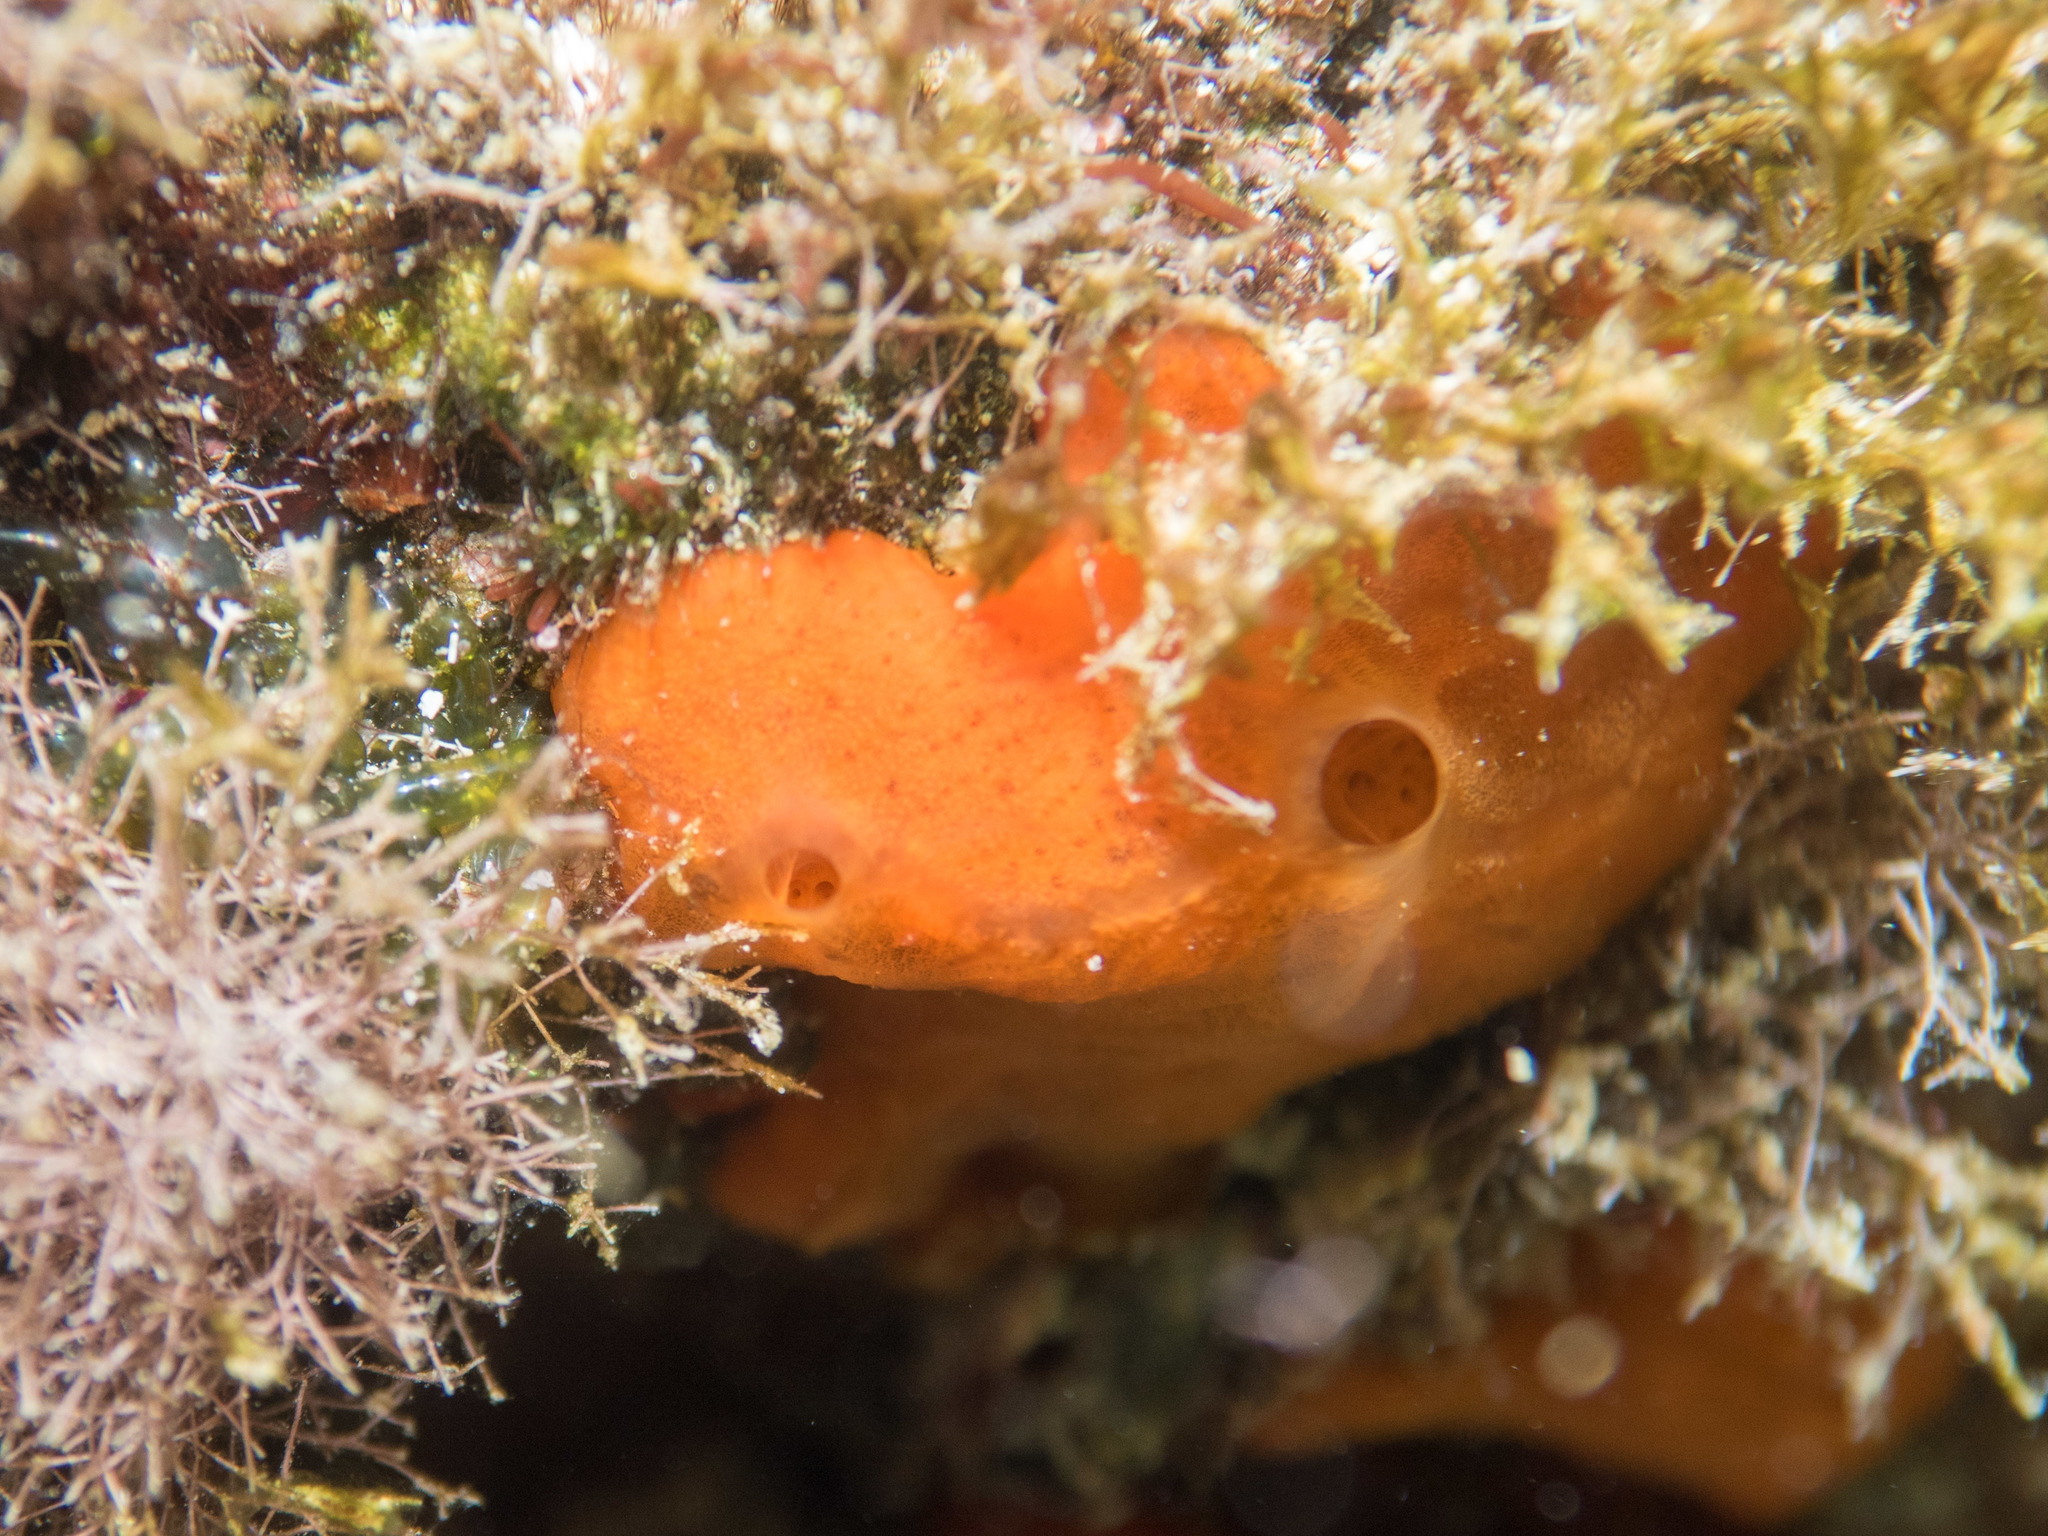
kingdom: Animalia
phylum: Porifera
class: Demospongiae
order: Poecilosclerida
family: Crambeidae
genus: Crambe
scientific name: Crambe crambe
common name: Orange-red encrusting sponge
